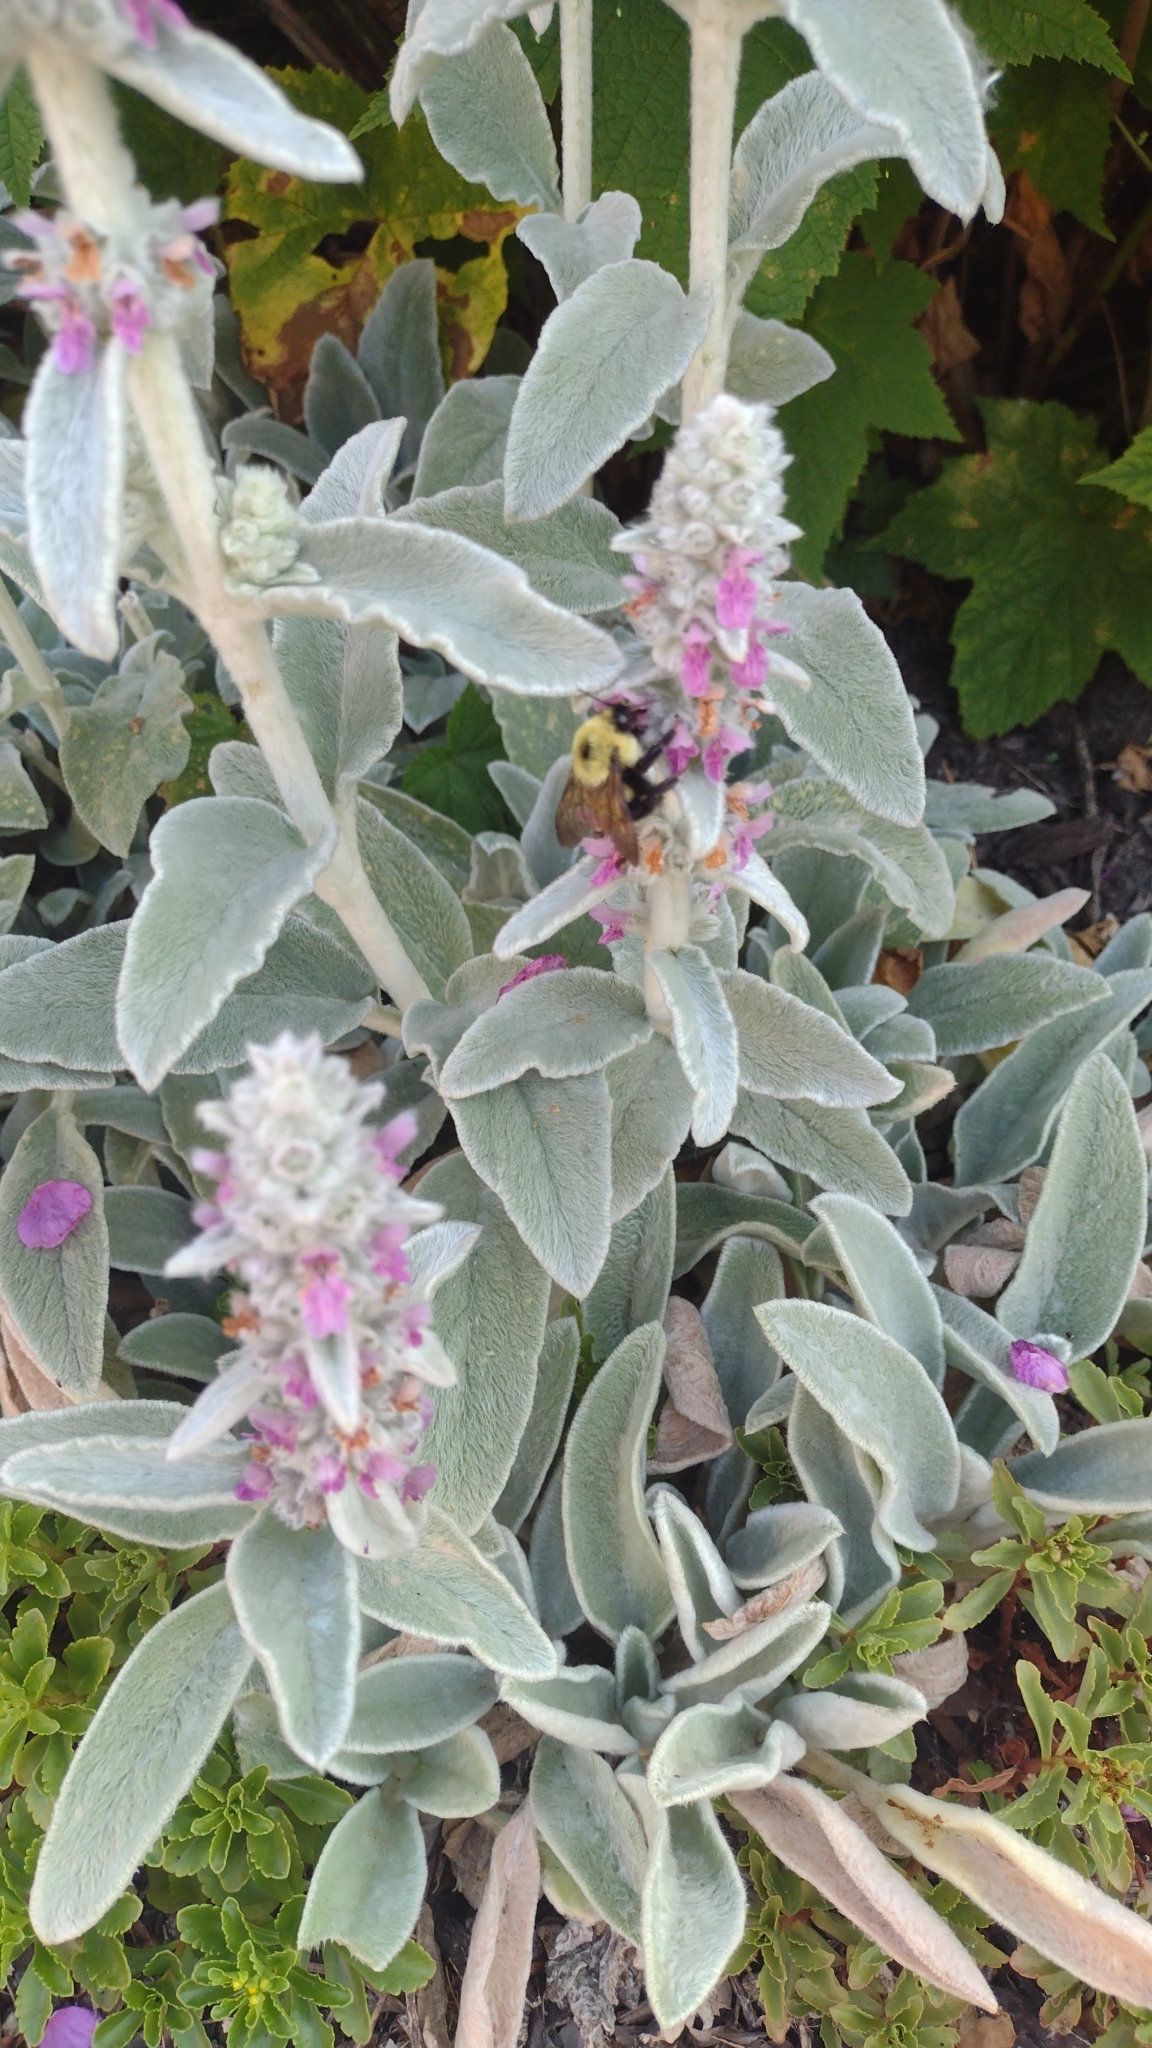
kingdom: Animalia
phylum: Arthropoda
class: Insecta
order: Hymenoptera
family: Apidae
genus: Bombus
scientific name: Bombus bimaculatus
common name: Two-spotted bumble bee
